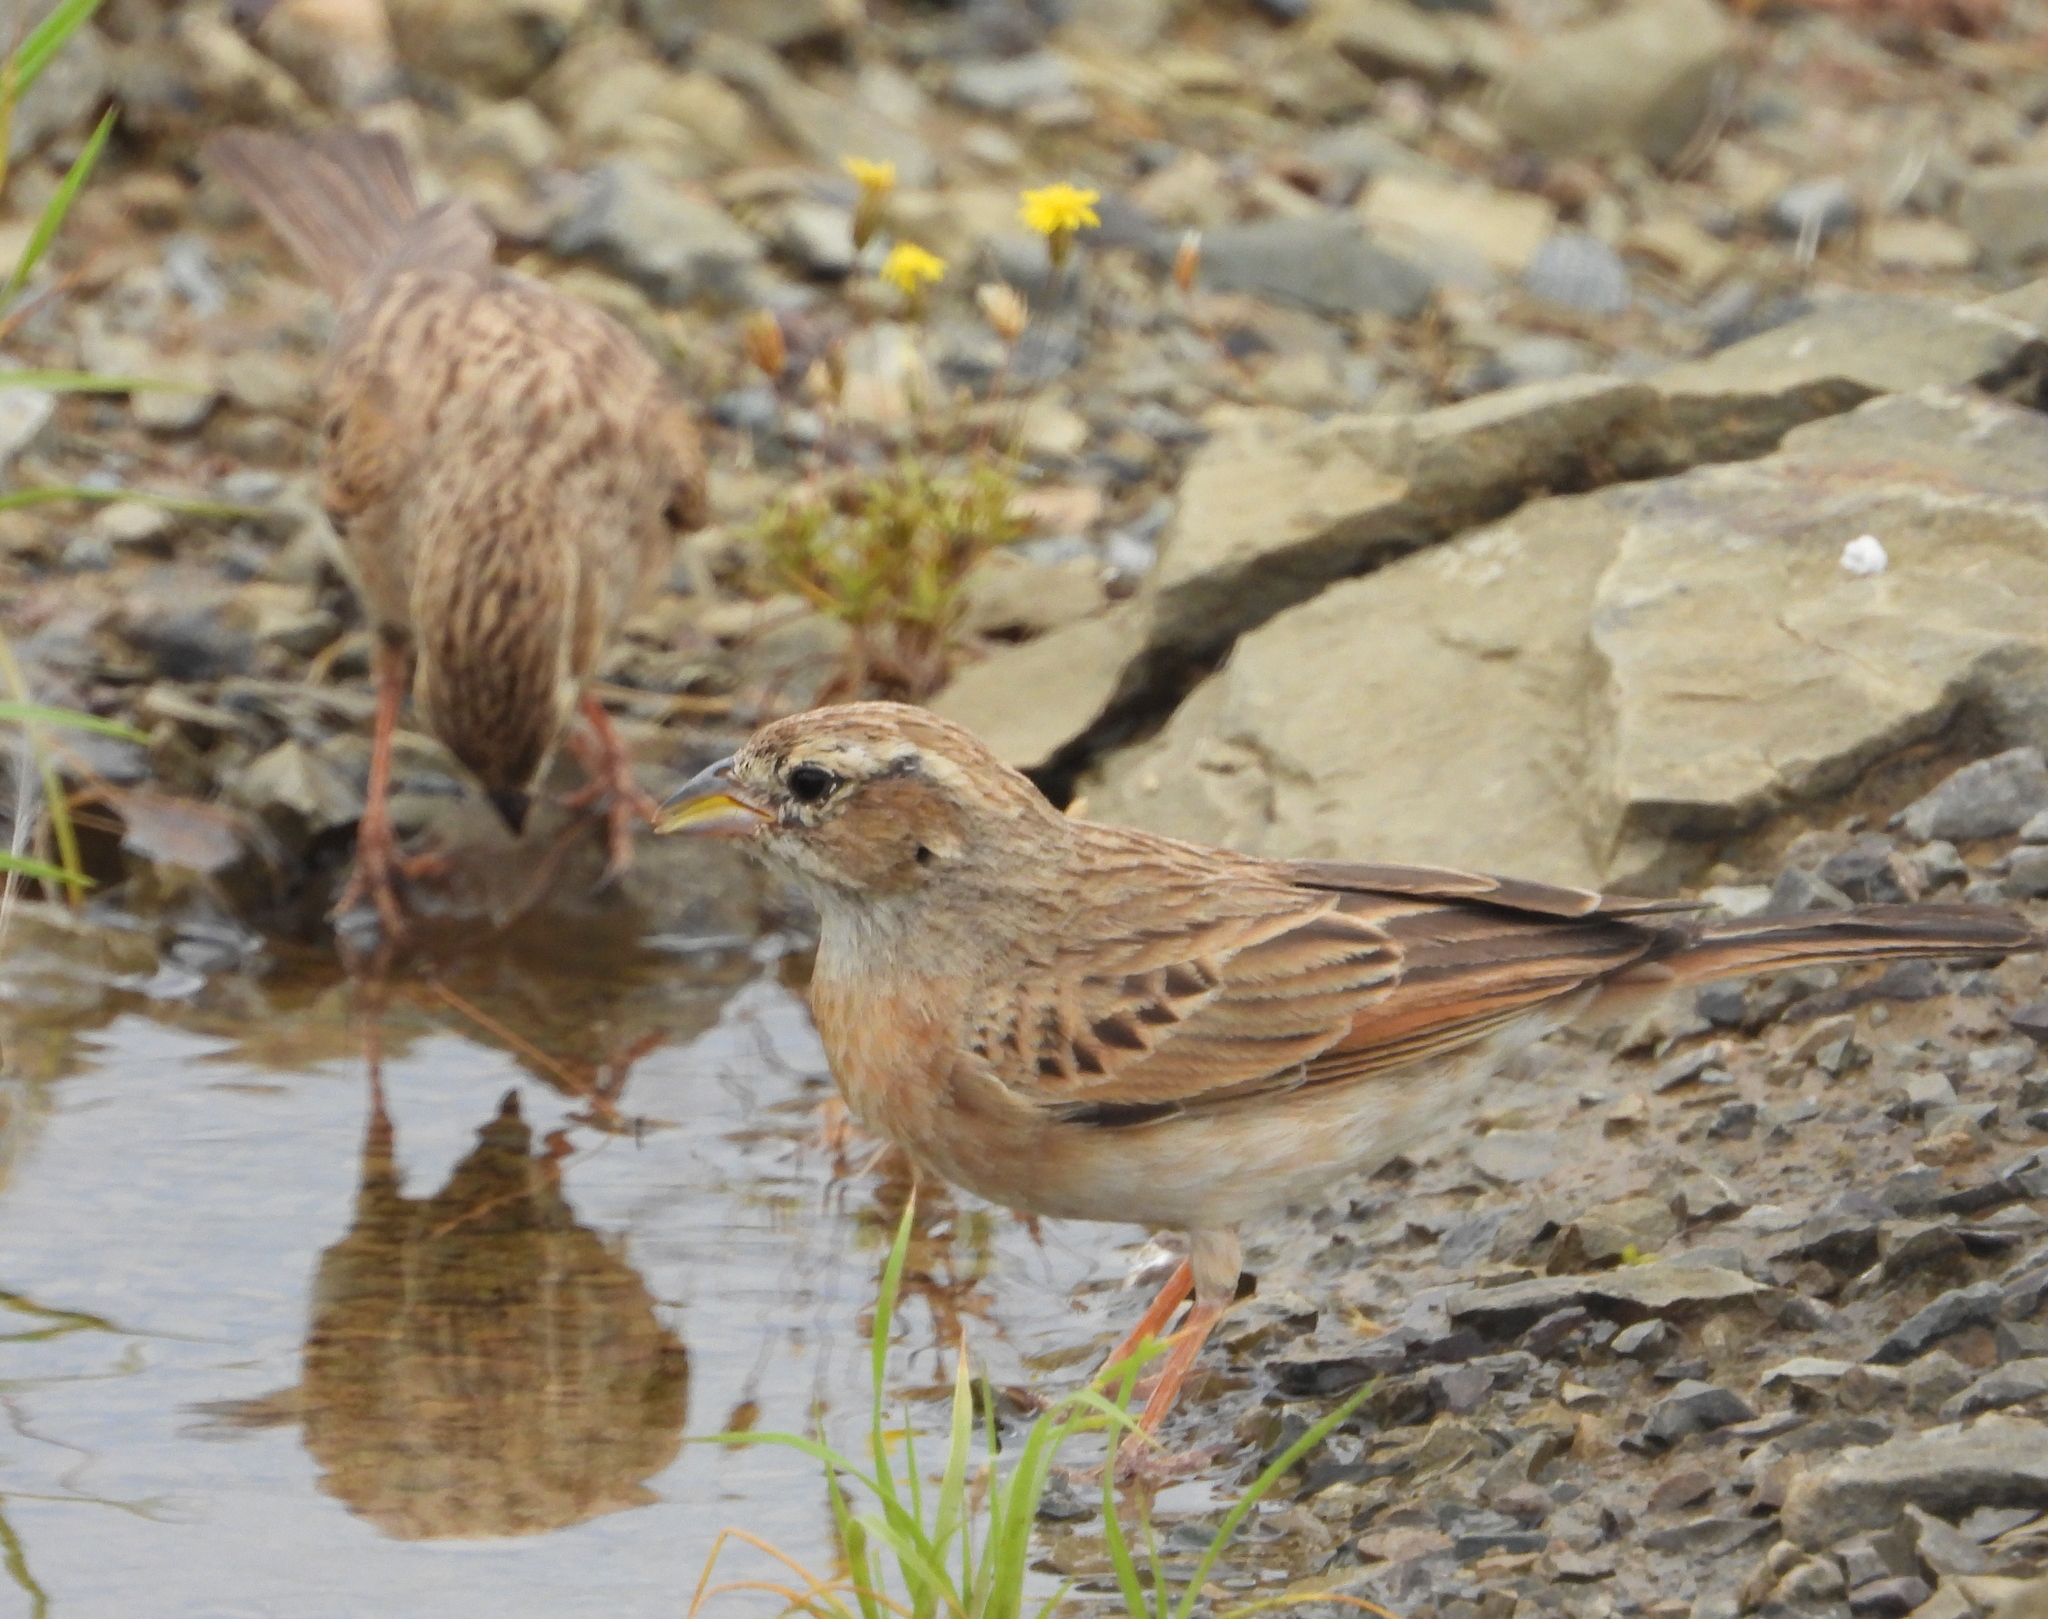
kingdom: Animalia
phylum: Chordata
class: Aves
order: Passeriformes
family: Emberizidae
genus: Emberiza
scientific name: Emberiza impetuani
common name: Lark-like bunting
